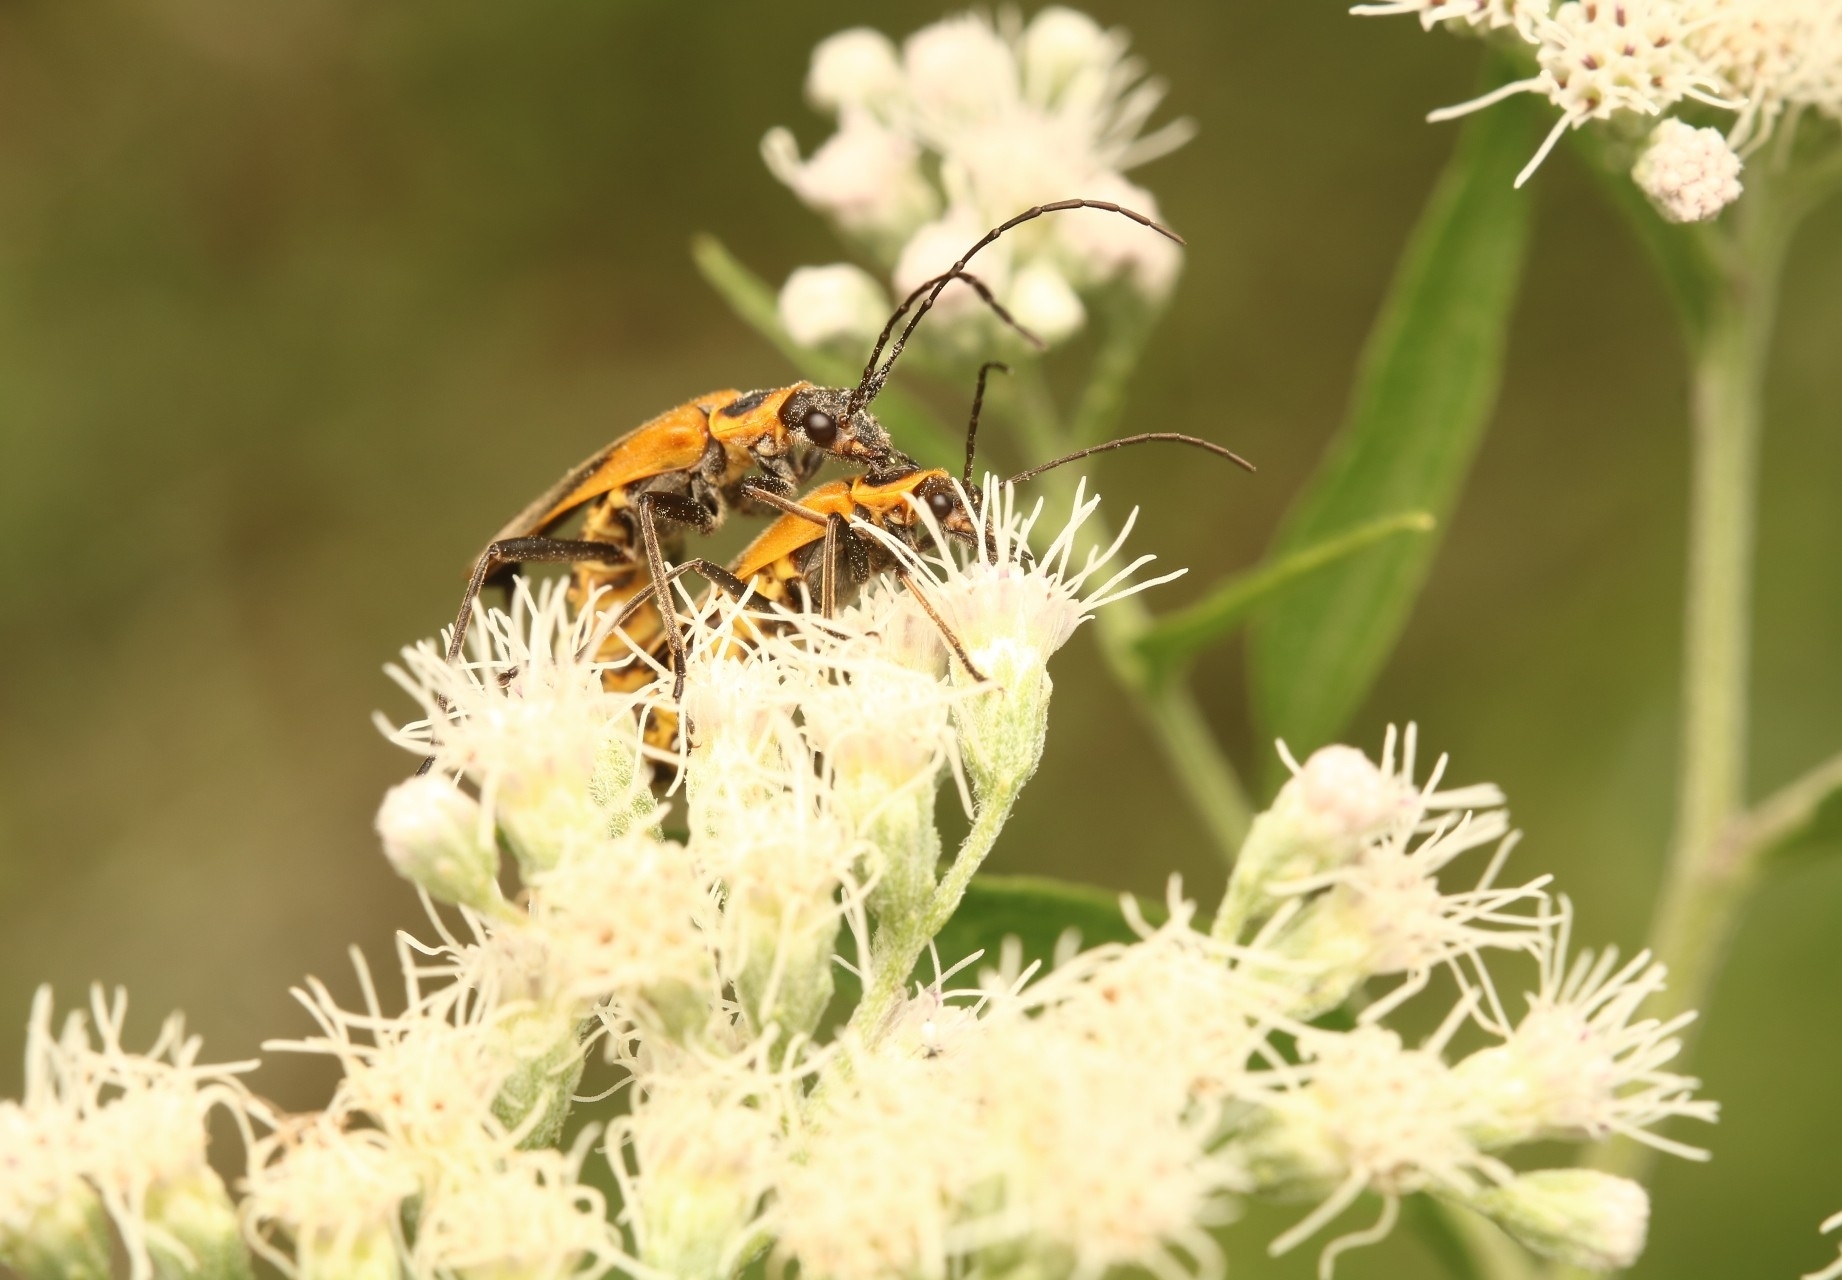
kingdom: Animalia
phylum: Arthropoda
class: Insecta
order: Coleoptera
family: Cantharidae
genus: Chauliognathus
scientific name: Chauliognathus pensylvanicus
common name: Goldenrod soldier beetle
